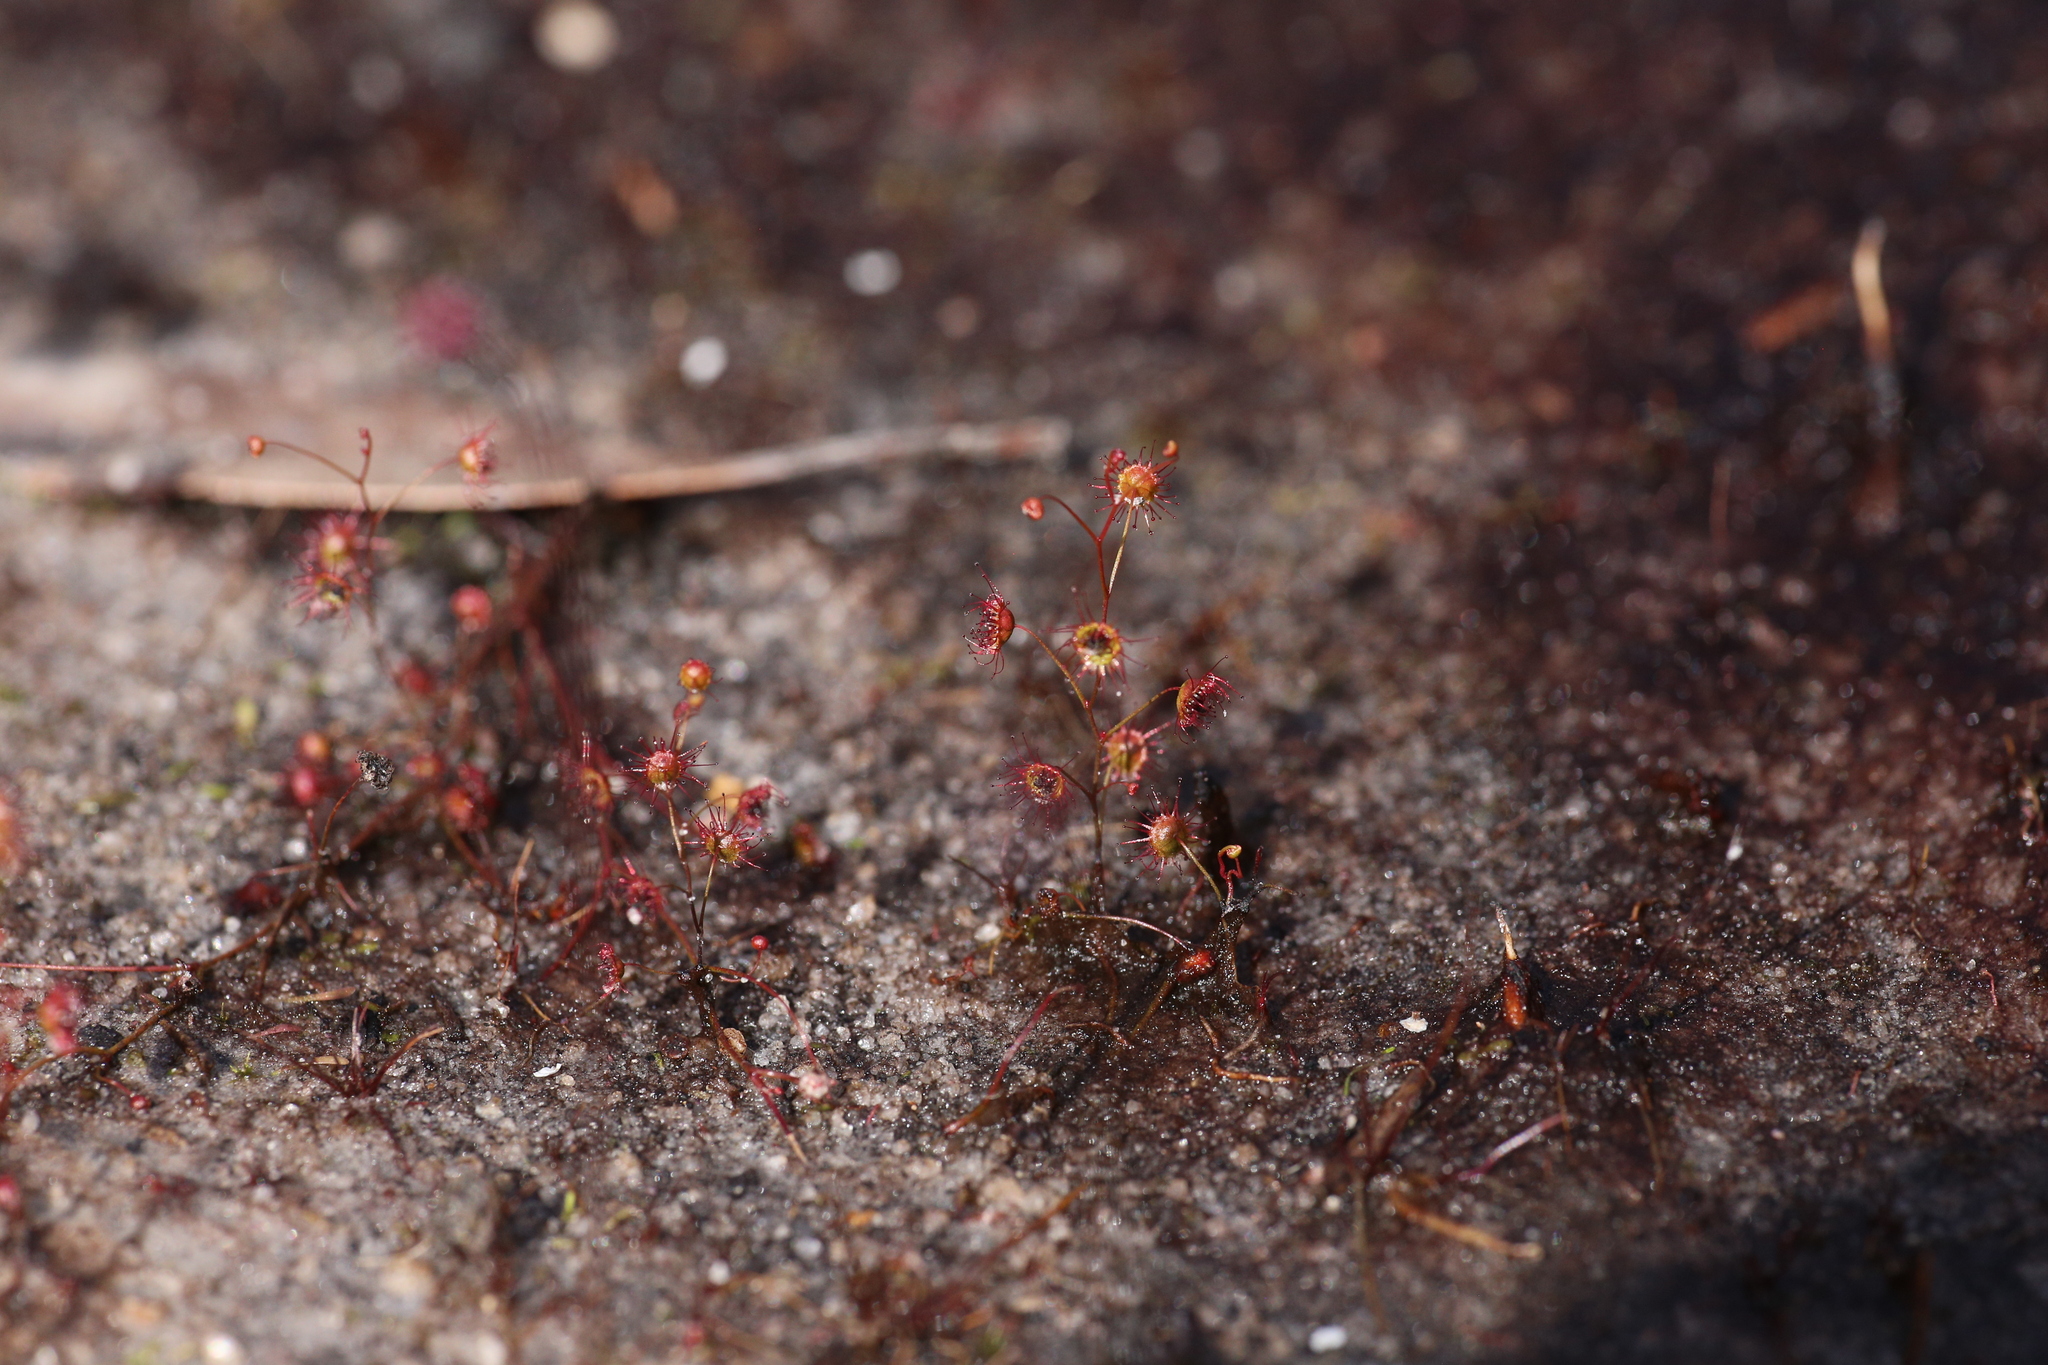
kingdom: Plantae
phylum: Tracheophyta
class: Magnoliopsida
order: Caryophyllales
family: Droseraceae
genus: Drosera
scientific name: Drosera
